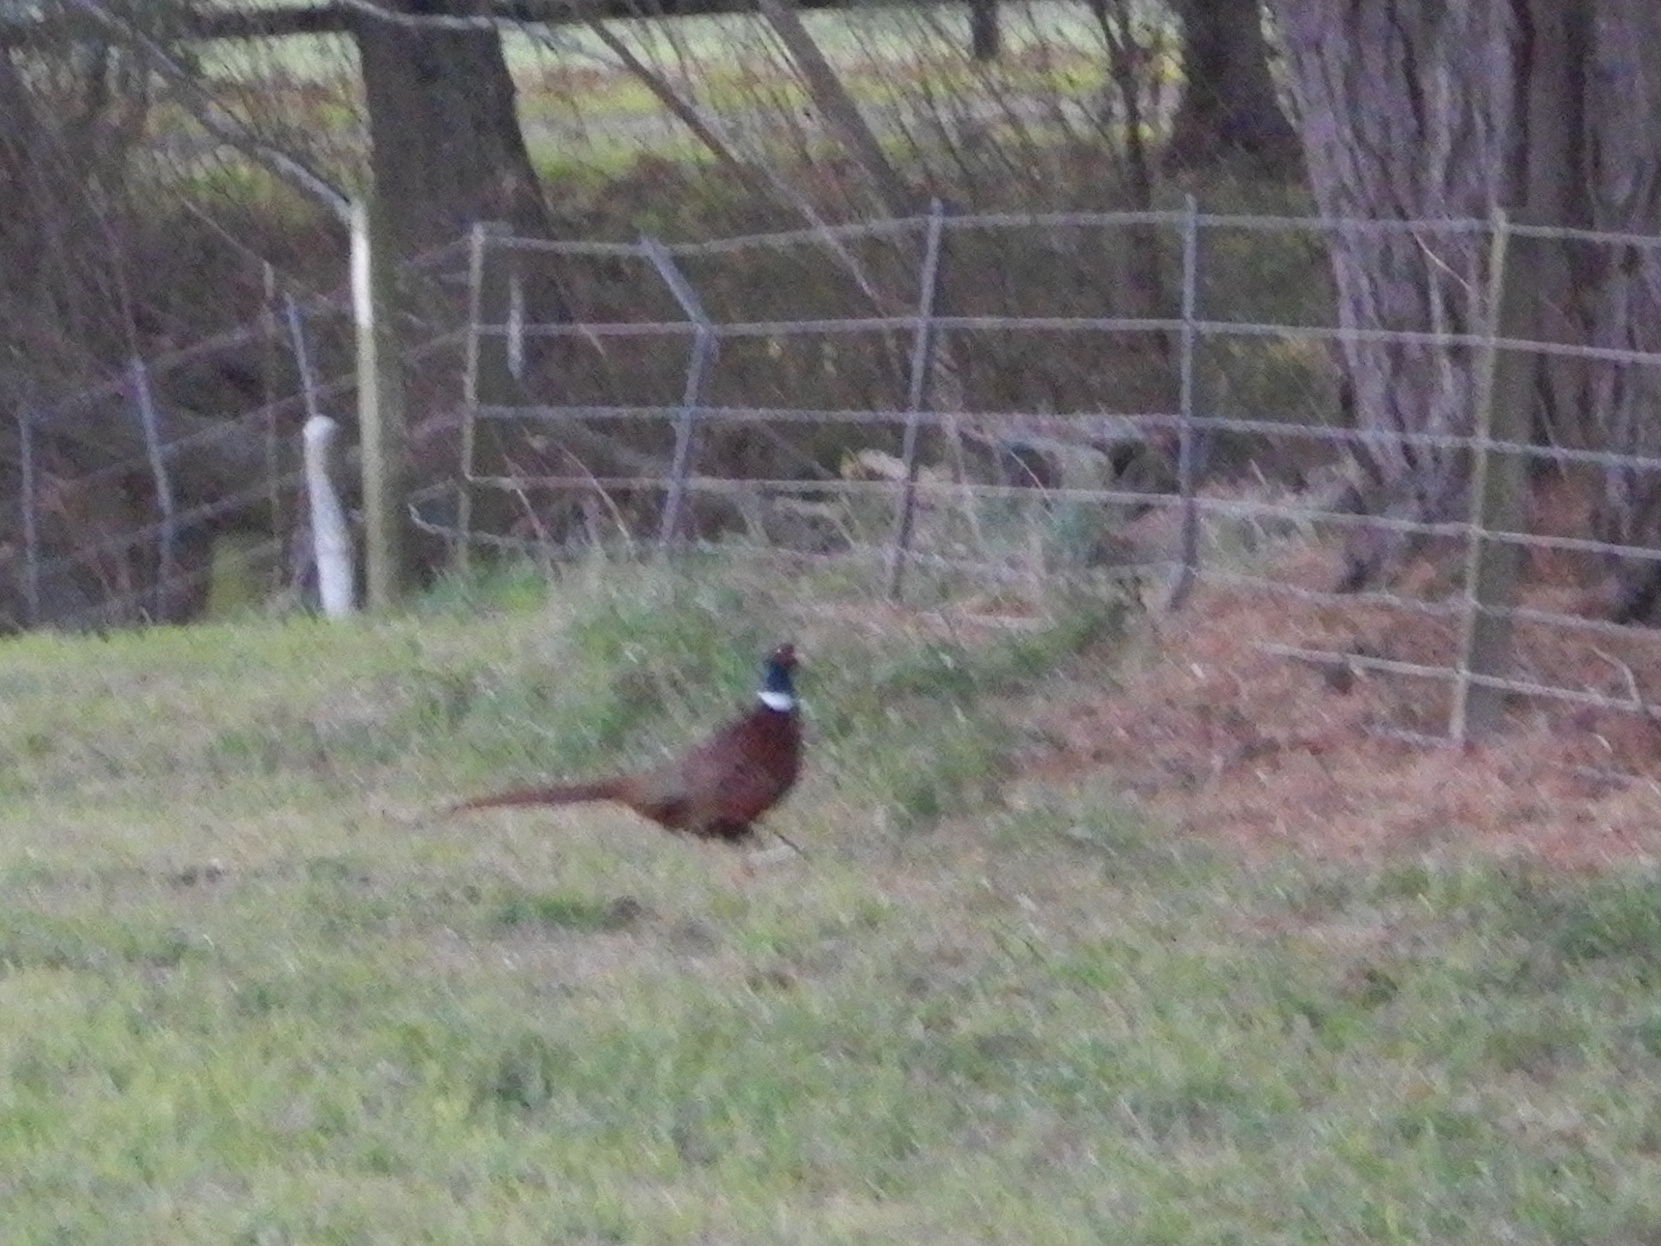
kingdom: Animalia
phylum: Chordata
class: Aves
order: Galliformes
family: Phasianidae
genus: Phasianus
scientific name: Phasianus colchicus
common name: Common pheasant
